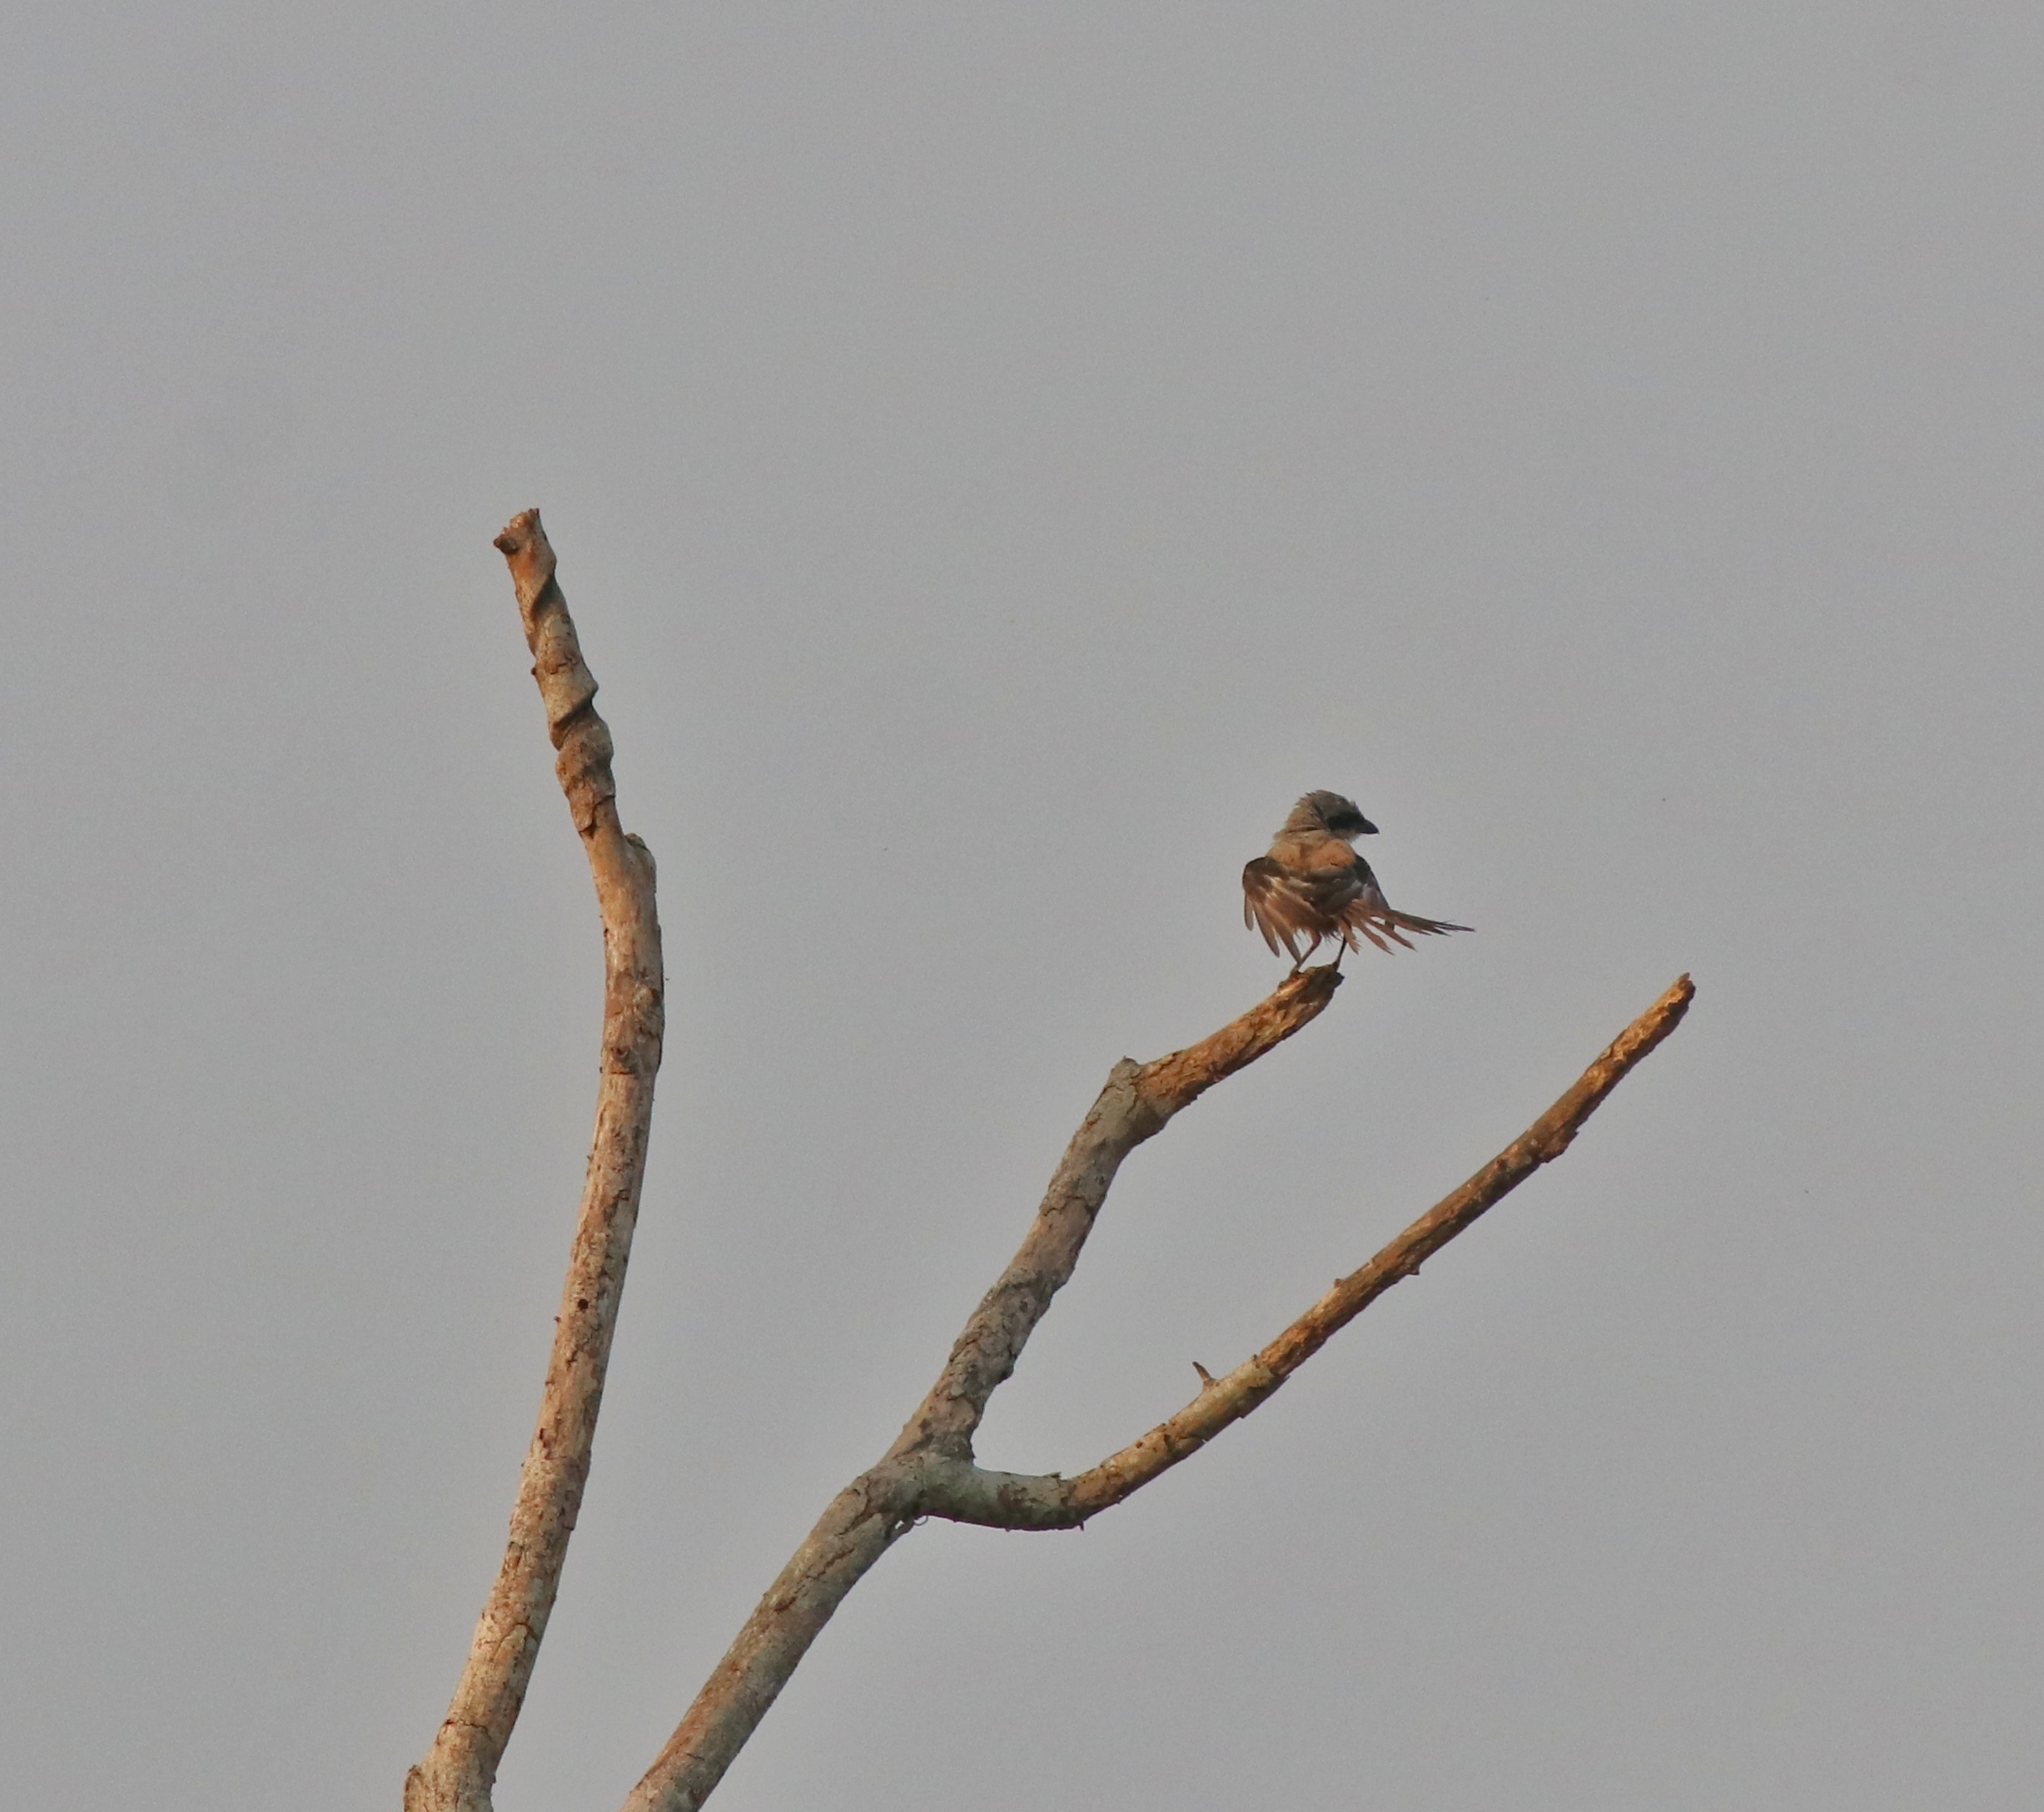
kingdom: Animalia
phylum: Chordata
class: Aves
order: Passeriformes
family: Laniidae
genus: Lanius
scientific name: Lanius schach
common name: Long-tailed shrike
